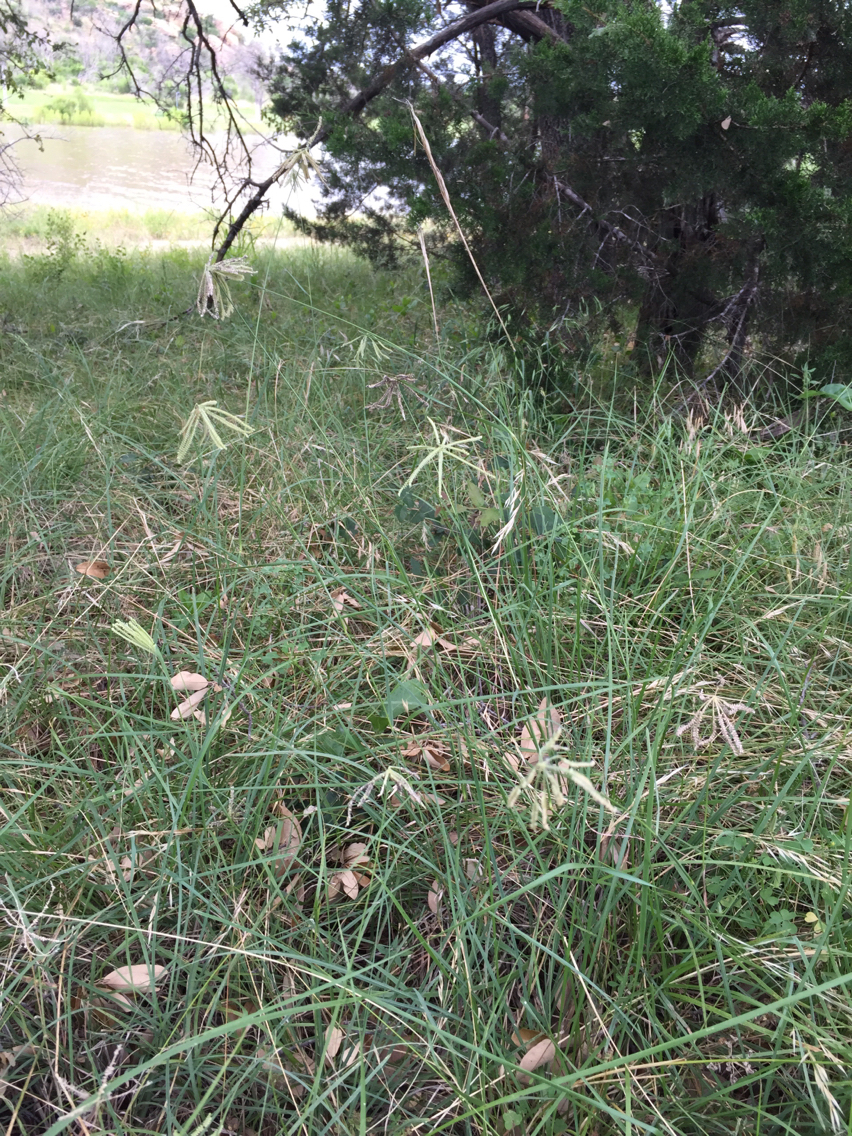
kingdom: Plantae
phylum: Tracheophyta
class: Liliopsida
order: Poales
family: Poaceae
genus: Chloris
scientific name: Chloris cucullata
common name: Hooded windmill grass
